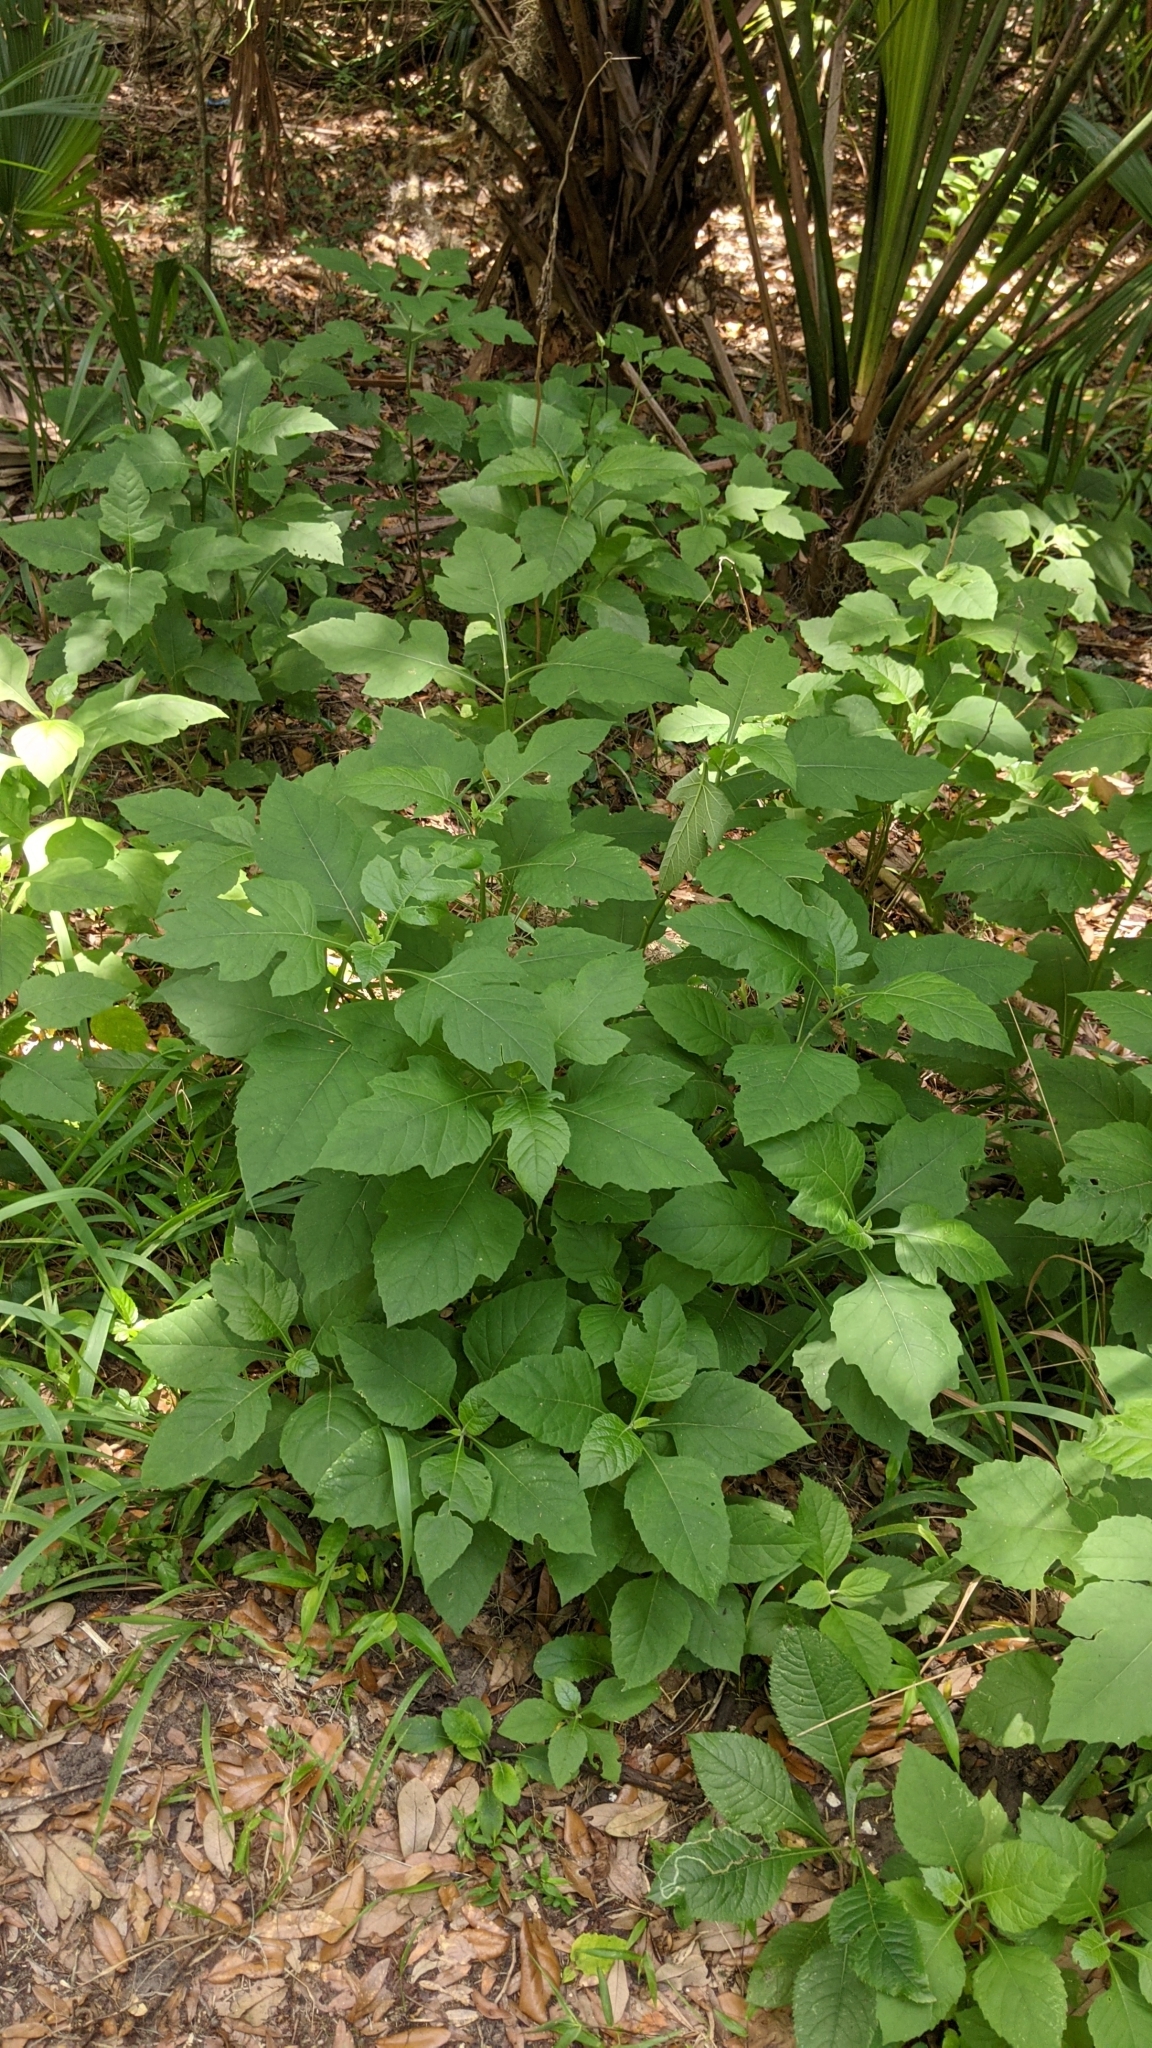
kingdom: Plantae
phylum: Tracheophyta
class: Magnoliopsida
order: Asterales
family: Asteraceae
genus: Verbesina
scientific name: Verbesina virginica
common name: Frostweed
